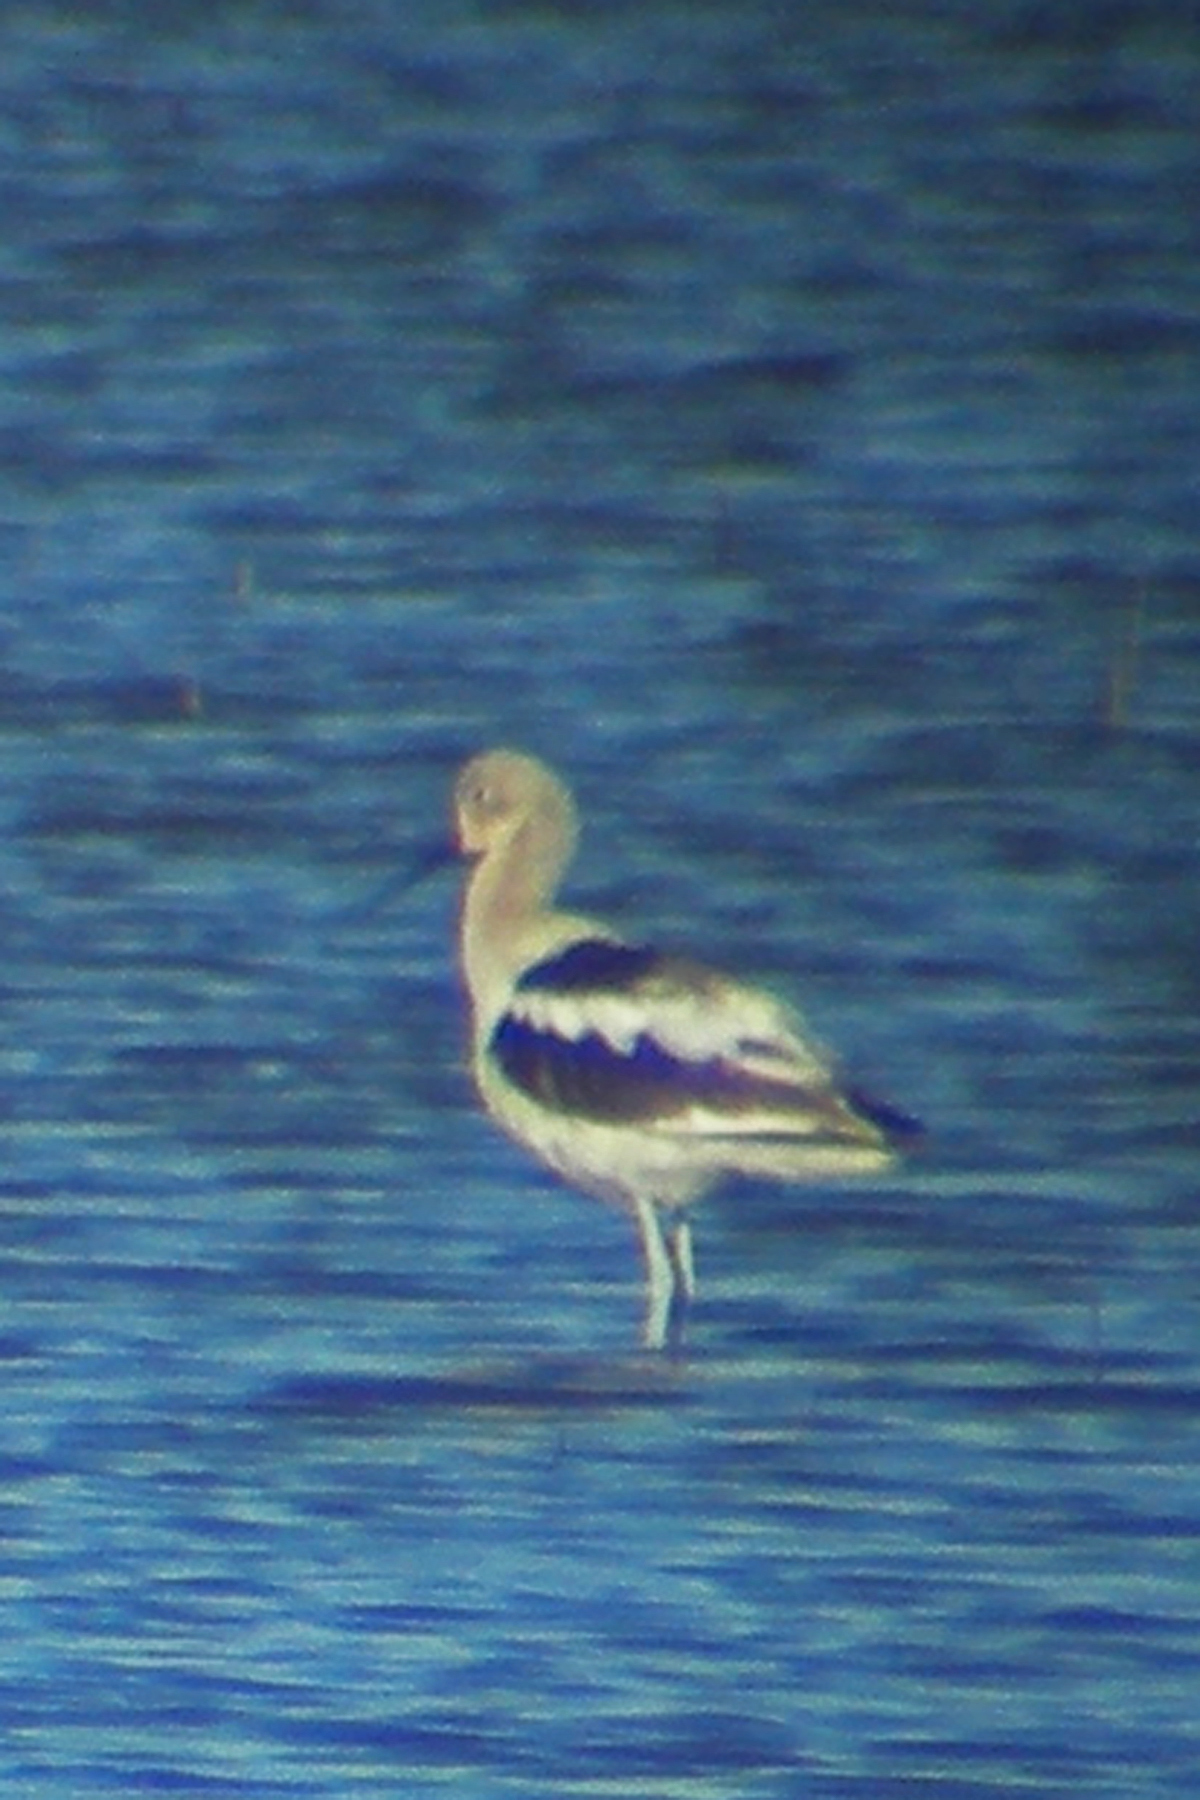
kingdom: Animalia
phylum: Chordata
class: Aves
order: Charadriiformes
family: Recurvirostridae
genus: Recurvirostra
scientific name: Recurvirostra americana
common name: American avocet
